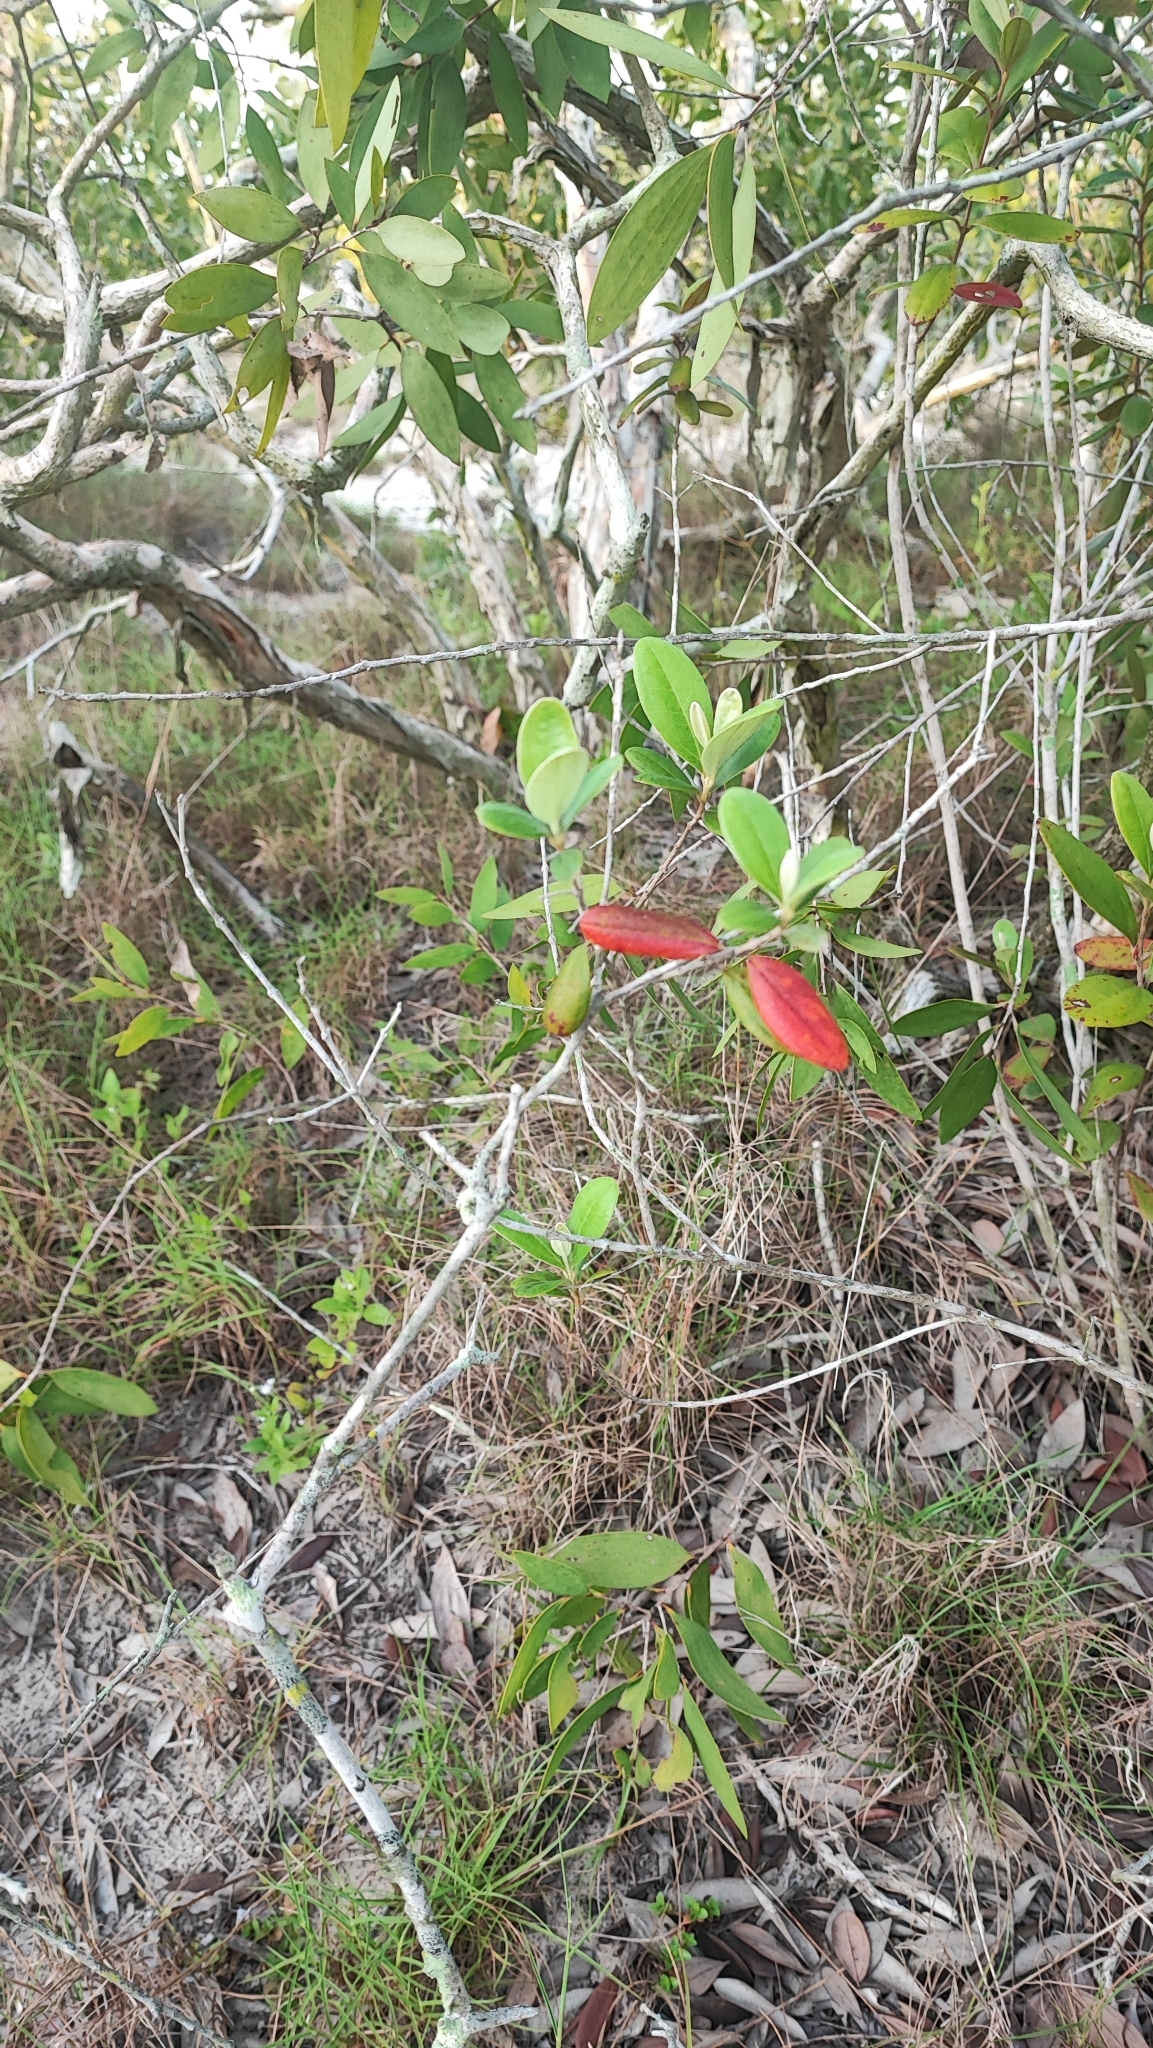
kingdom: Plantae
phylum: Tracheophyta
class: Magnoliopsida
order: Myrtales
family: Myrtaceae
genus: Rhodomyrtus
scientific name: Rhodomyrtus tomentosa
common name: Rose myrtle
